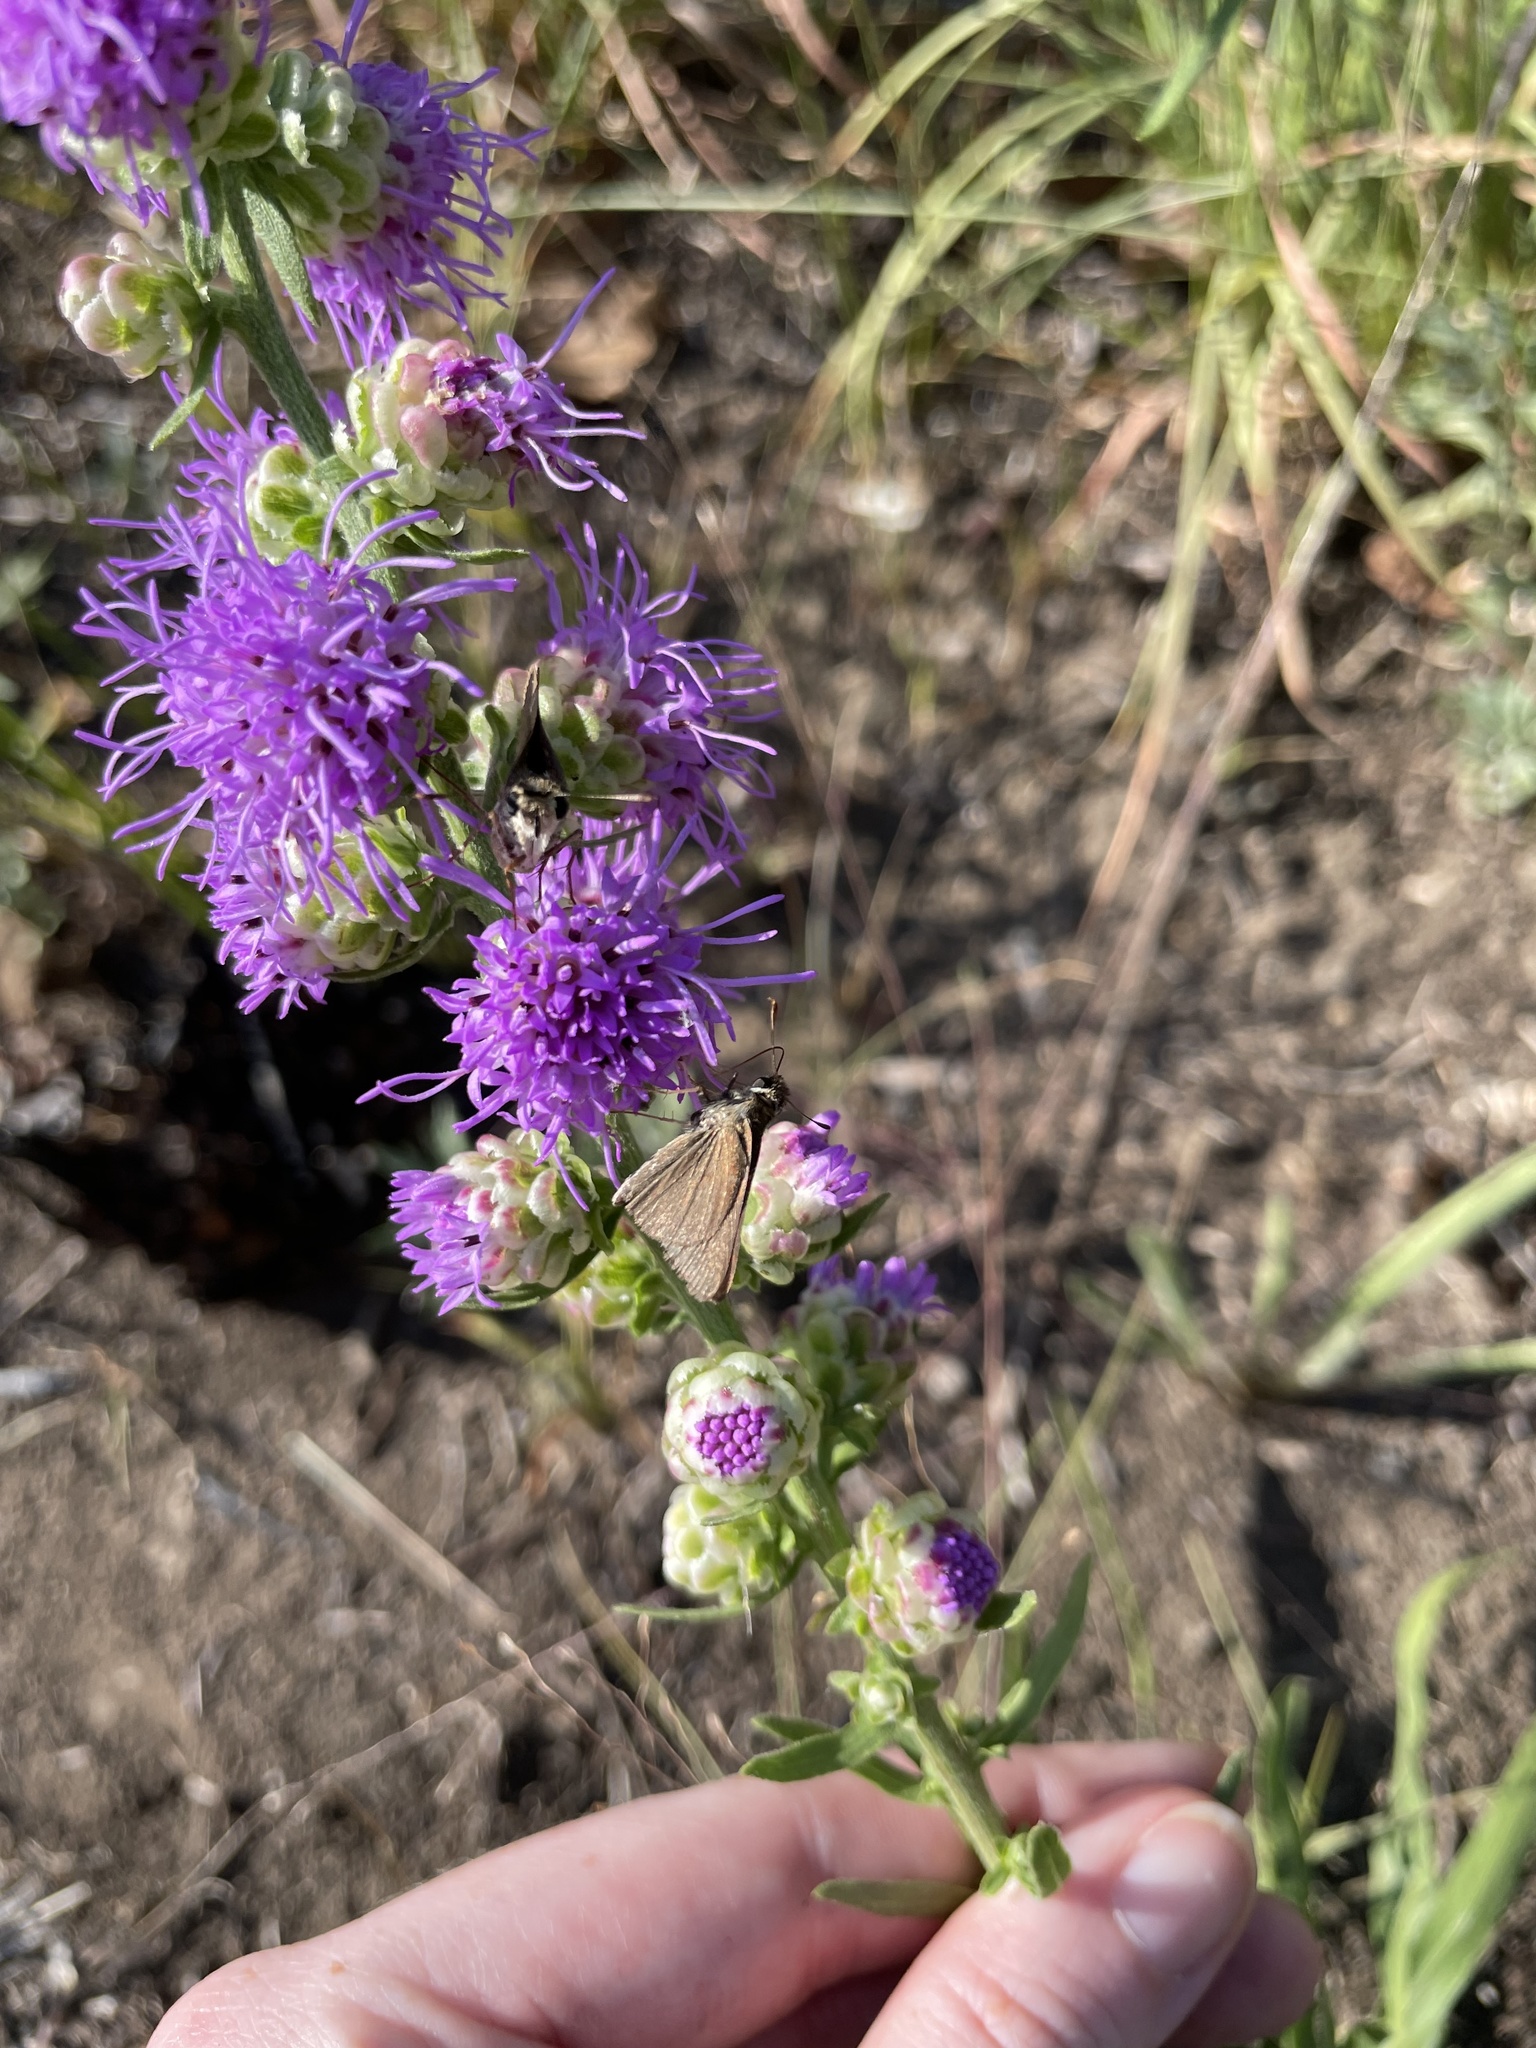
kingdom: Animalia
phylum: Arthropoda
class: Insecta
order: Lepidoptera
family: Hesperiidae
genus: Euphyes
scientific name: Euphyes vestris
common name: Dun skipper
